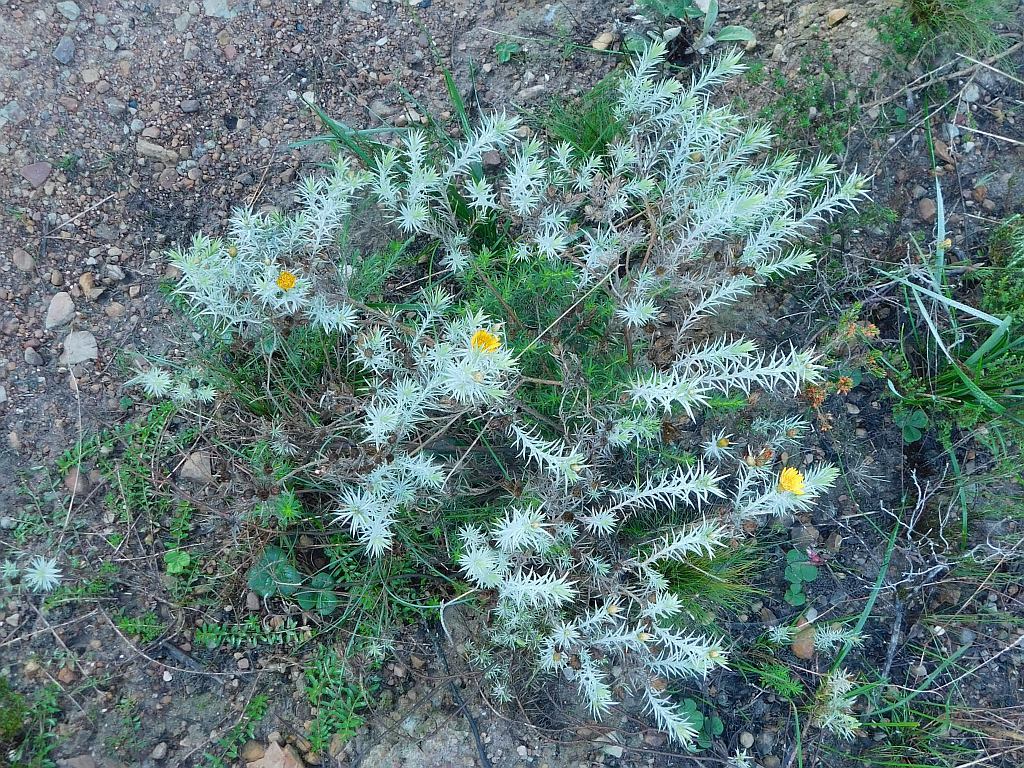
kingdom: Plantae
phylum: Tracheophyta
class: Magnoliopsida
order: Asterales
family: Asteraceae
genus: Oedera
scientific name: Oedera pungens
